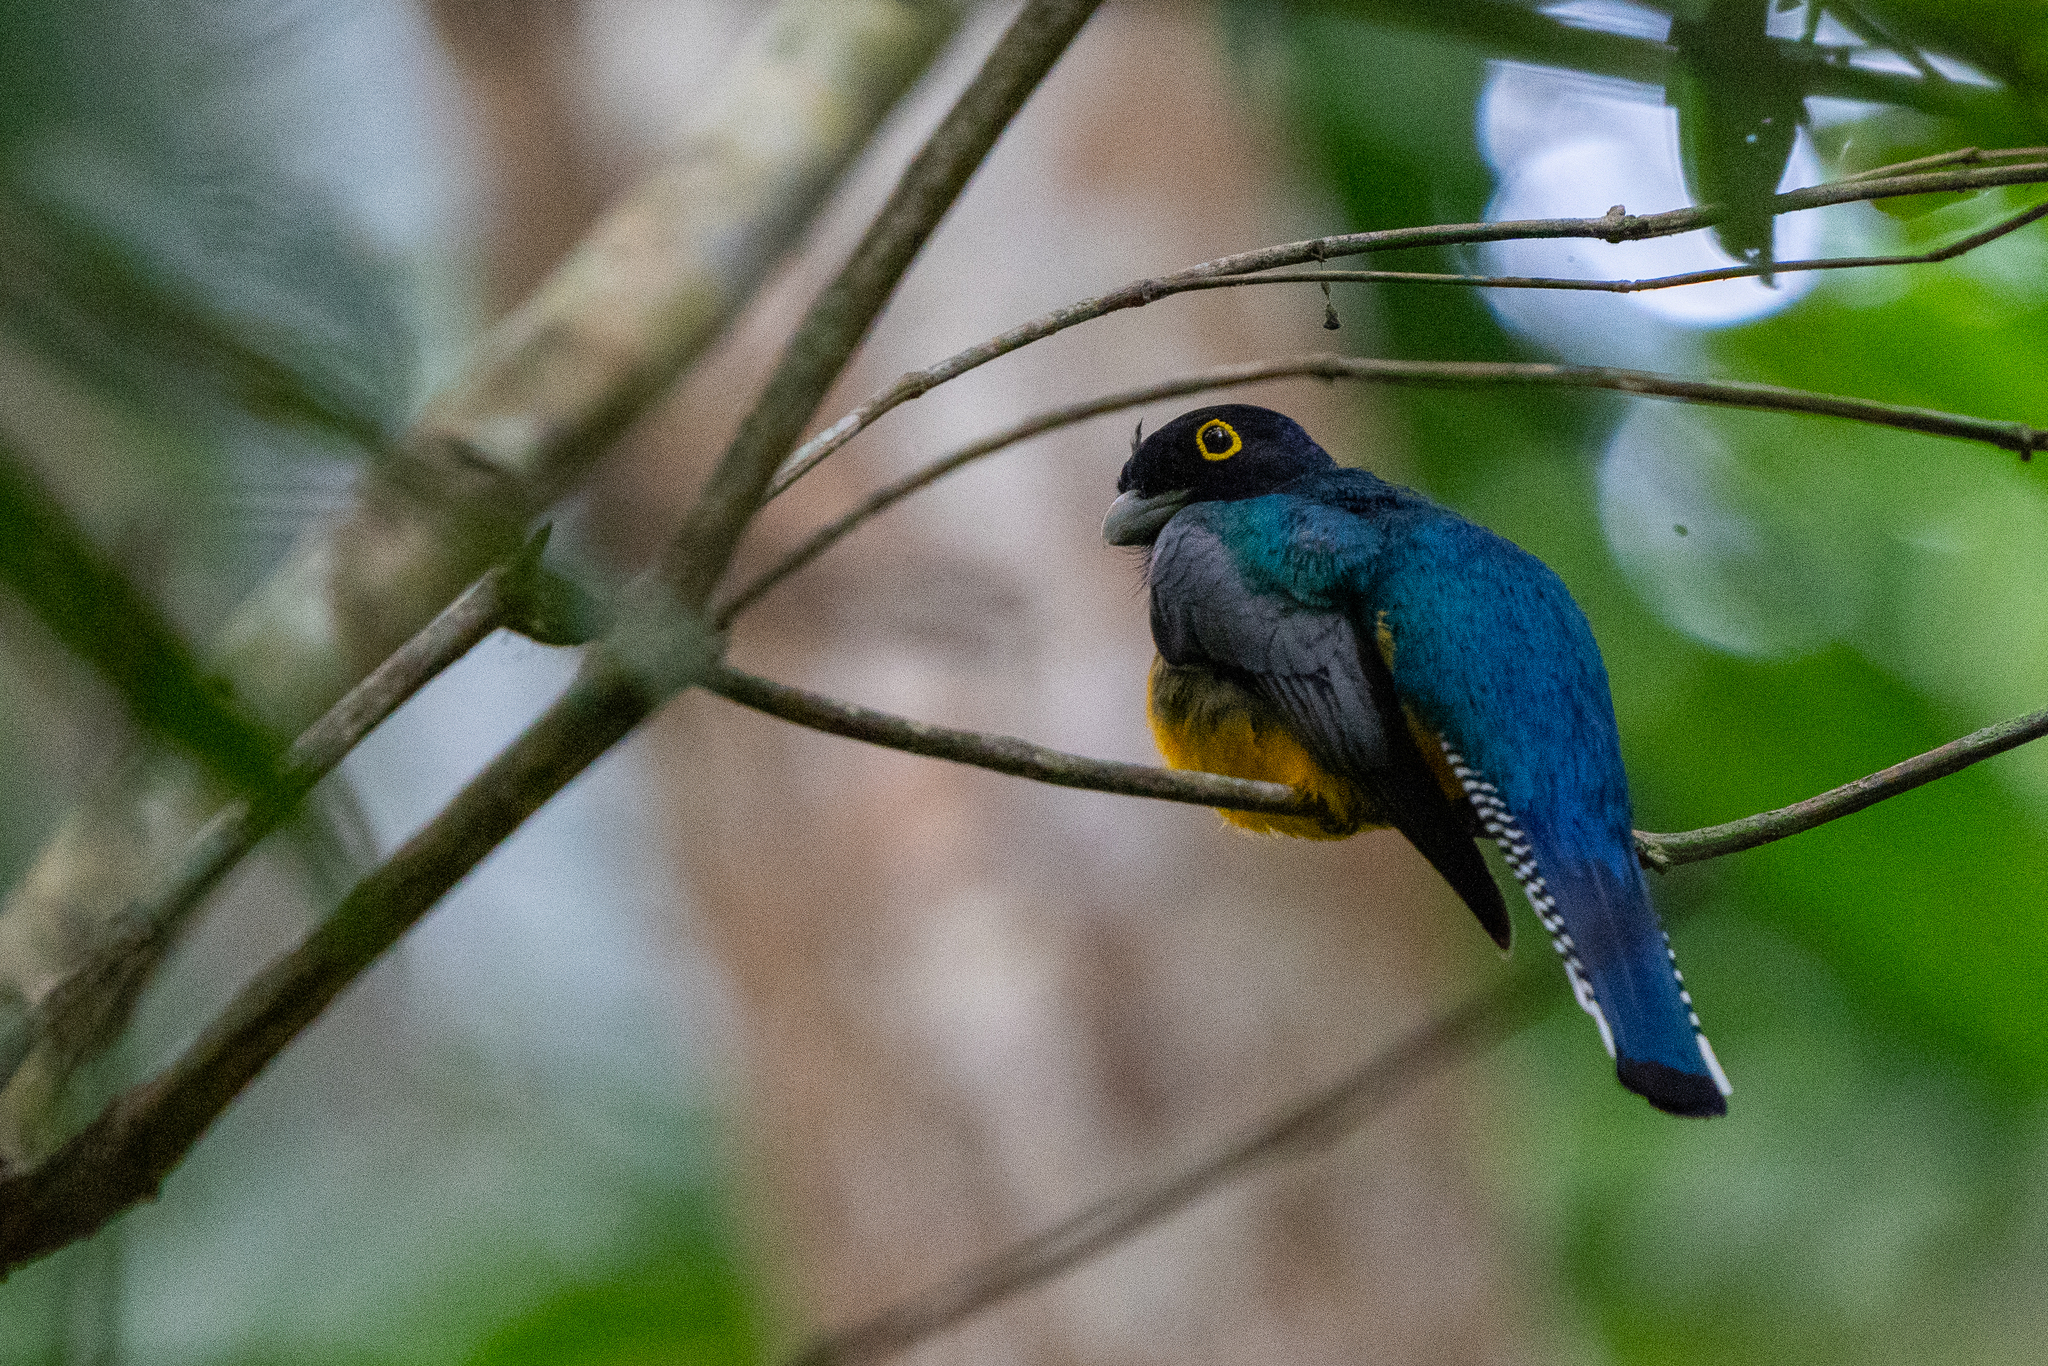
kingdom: Animalia
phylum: Chordata
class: Aves
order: Trogoniformes
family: Trogonidae
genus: Trogon
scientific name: Trogon caligatus
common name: Gartered trogon
